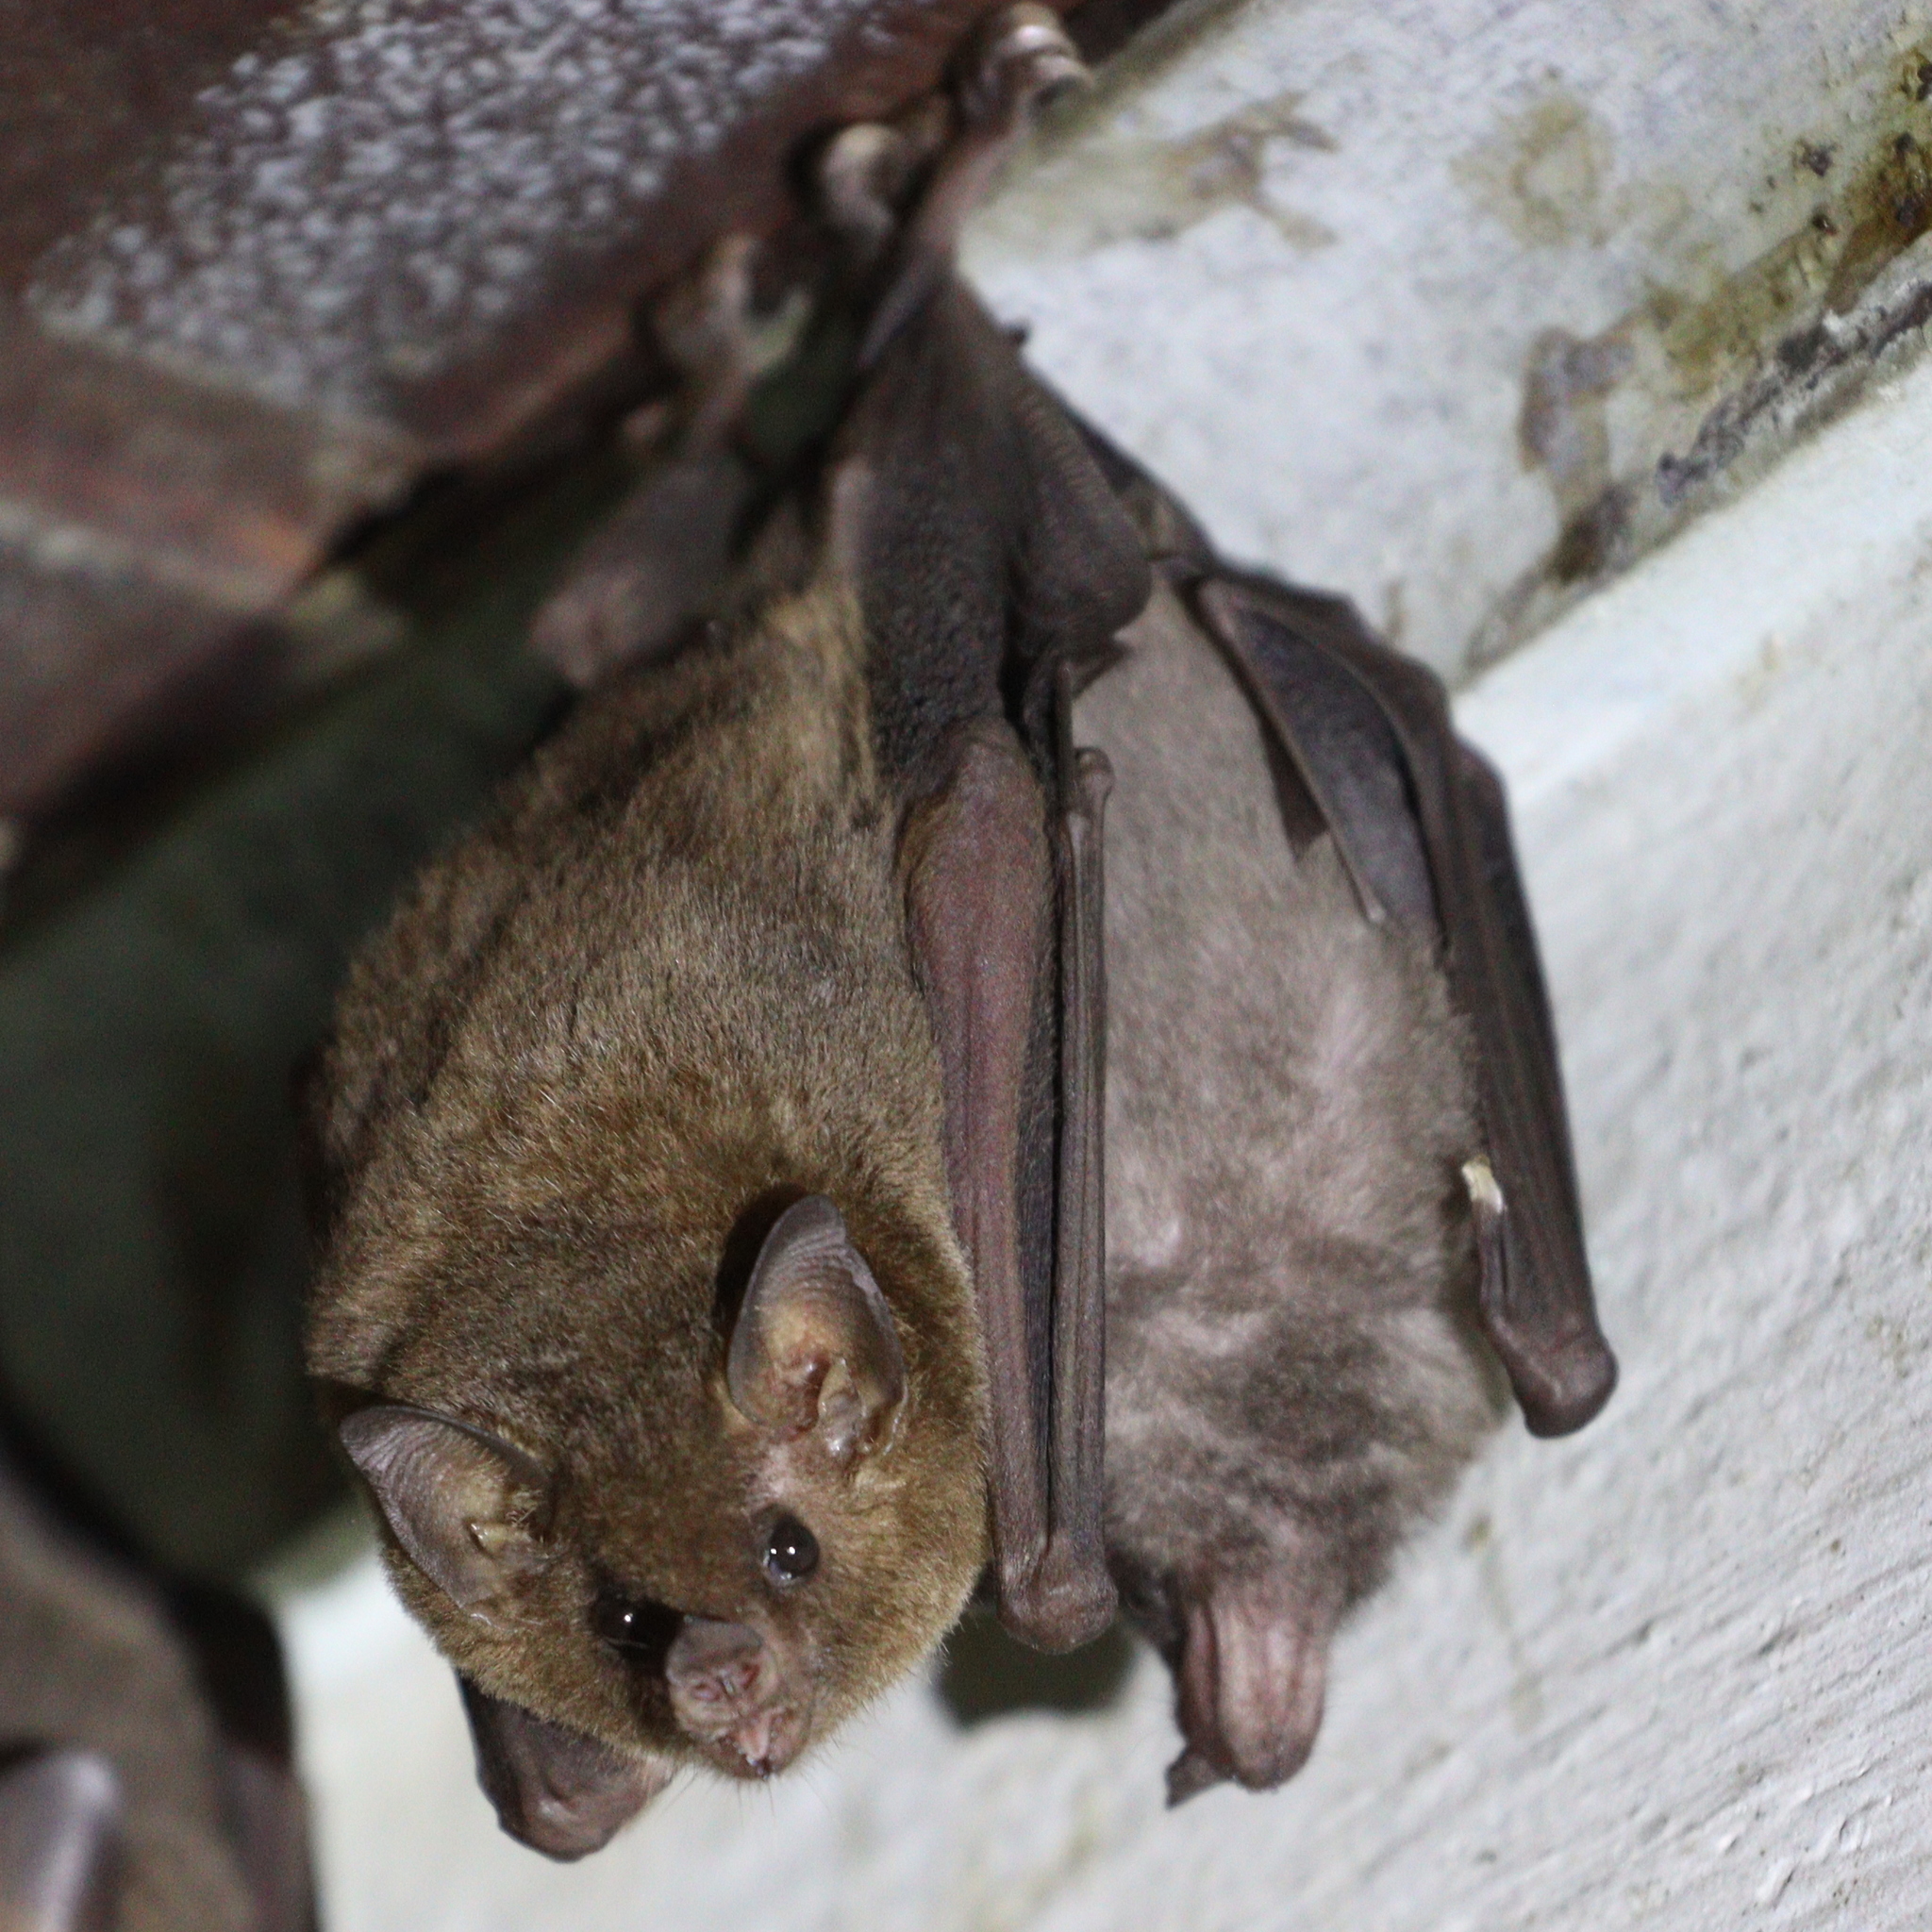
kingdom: Animalia
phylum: Chordata
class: Mammalia
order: Chiroptera
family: Phyllostomidae
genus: Glossophaga
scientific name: Glossophaga soricina
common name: Pallas's long-tongued bat
